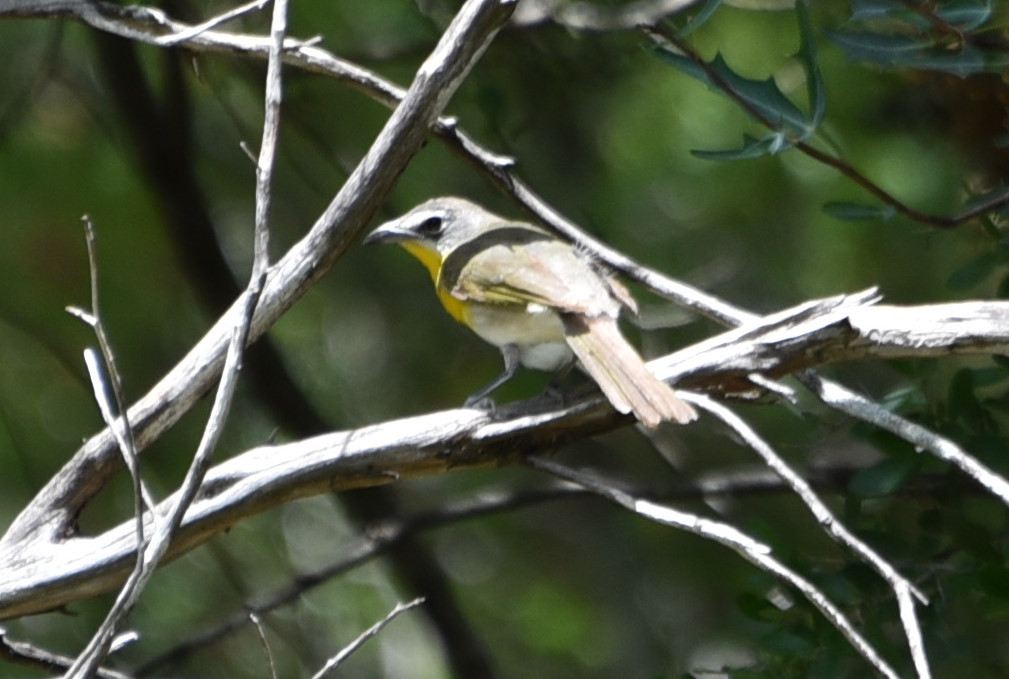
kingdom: Animalia
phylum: Chordata
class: Aves
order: Passeriformes
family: Parulidae
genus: Icteria
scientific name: Icteria virens
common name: Yellow-breasted chat
